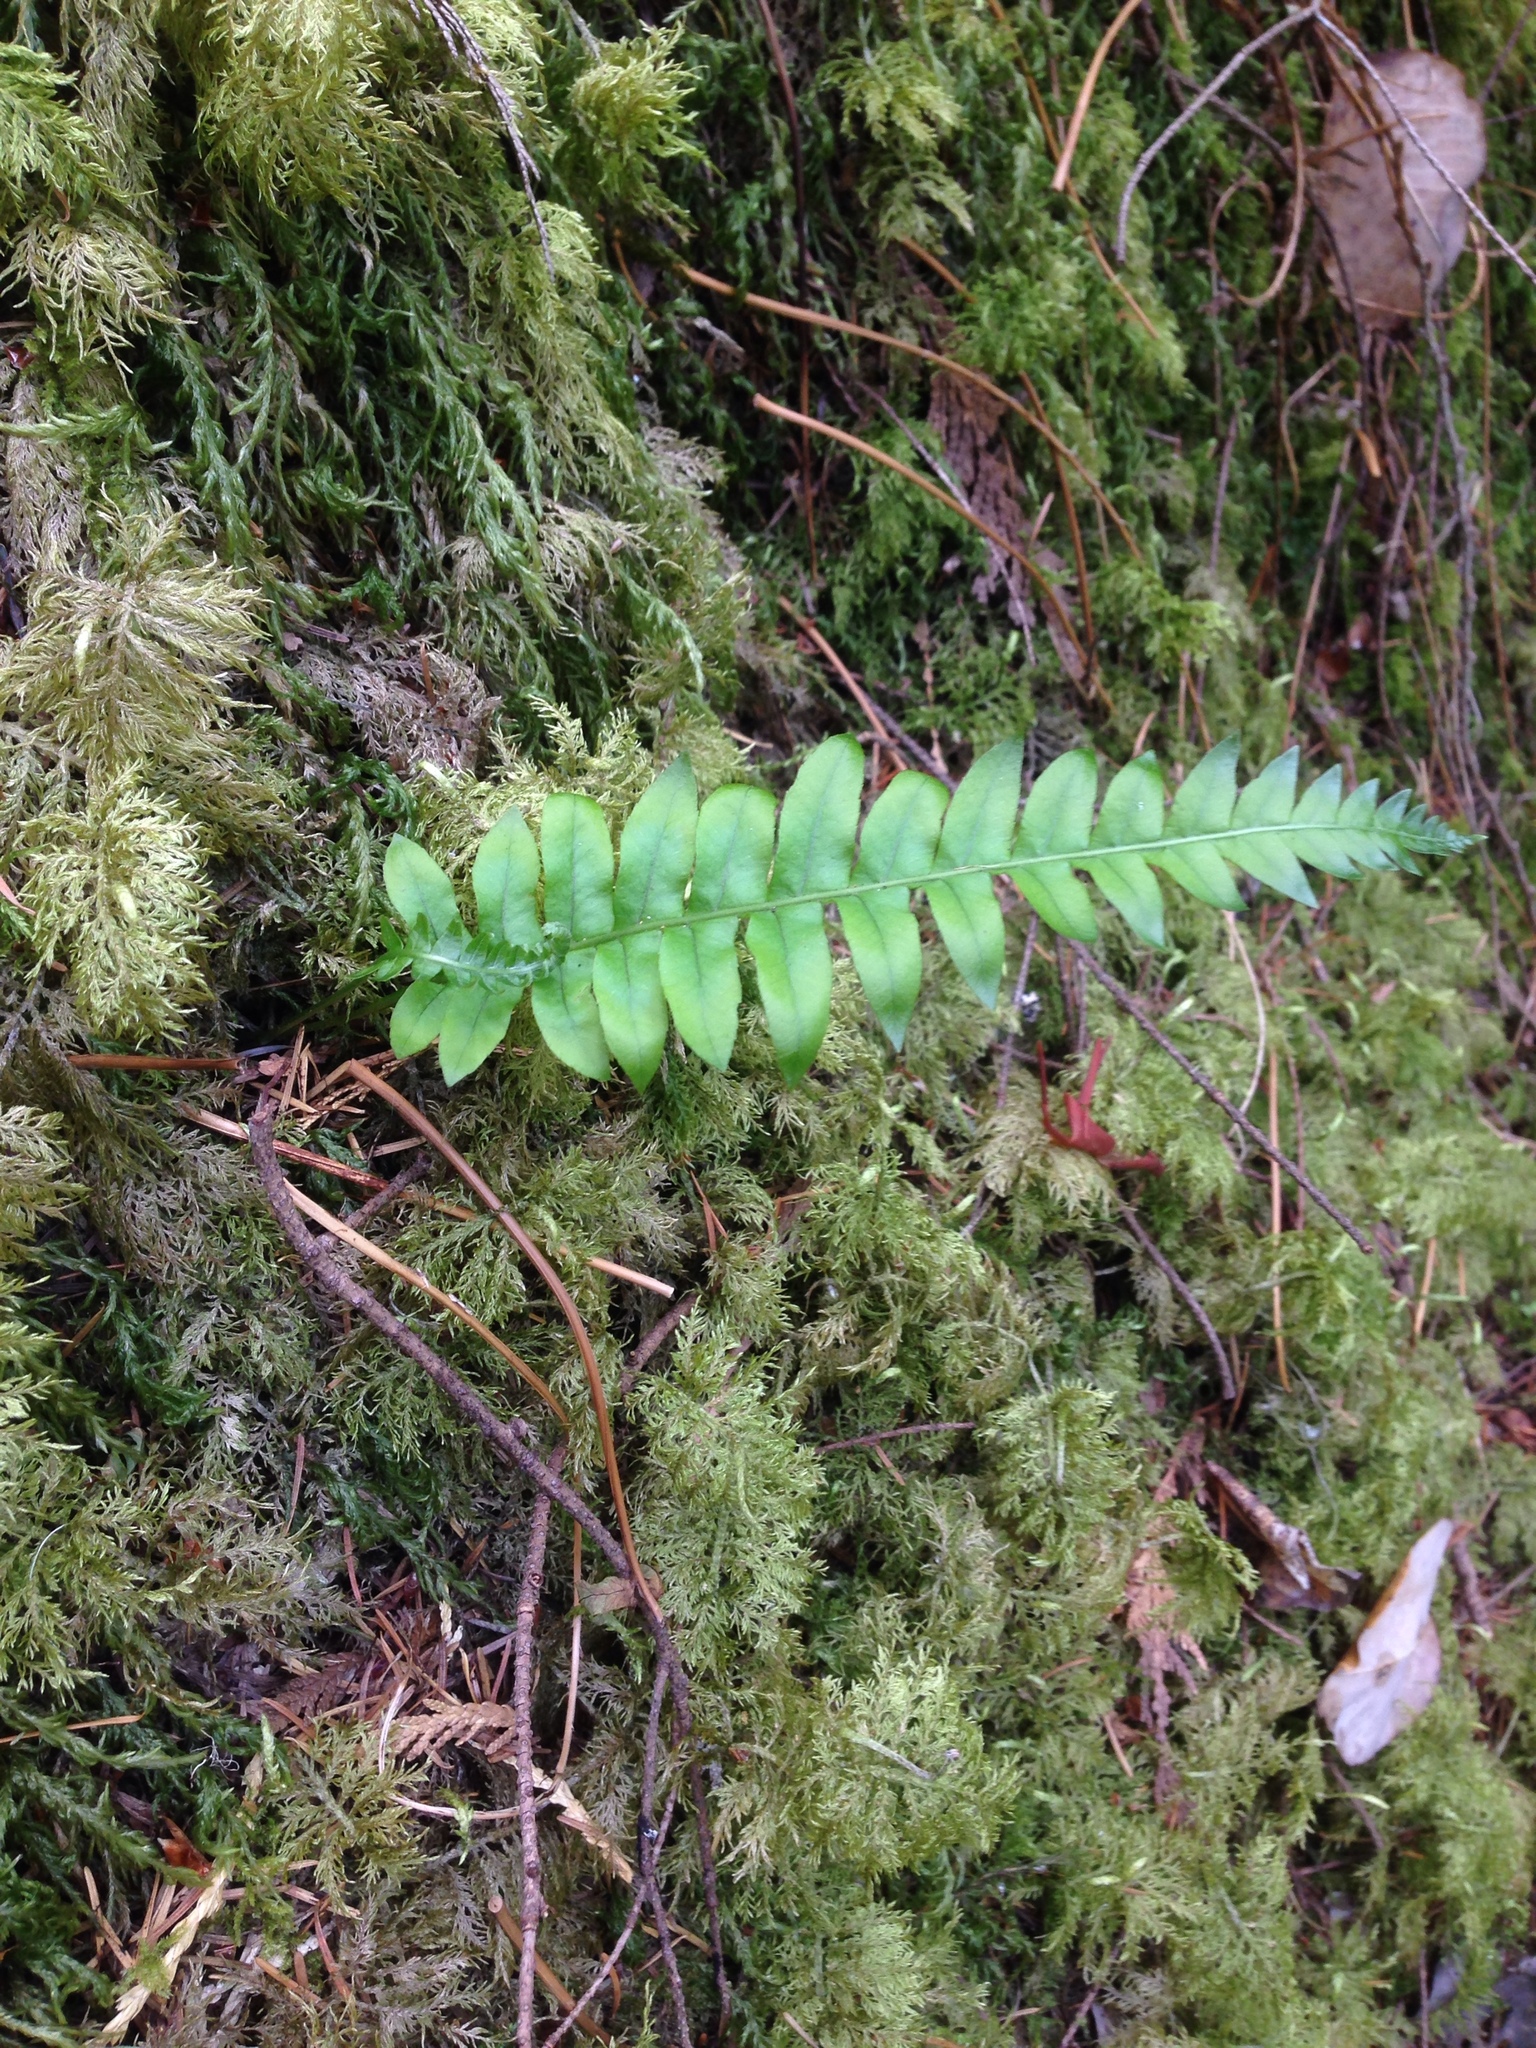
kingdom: Plantae
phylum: Tracheophyta
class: Polypodiopsida
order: Polypodiales
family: Polypodiaceae
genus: Polypodium
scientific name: Polypodium glycyrrhiza
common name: Licorice fern
